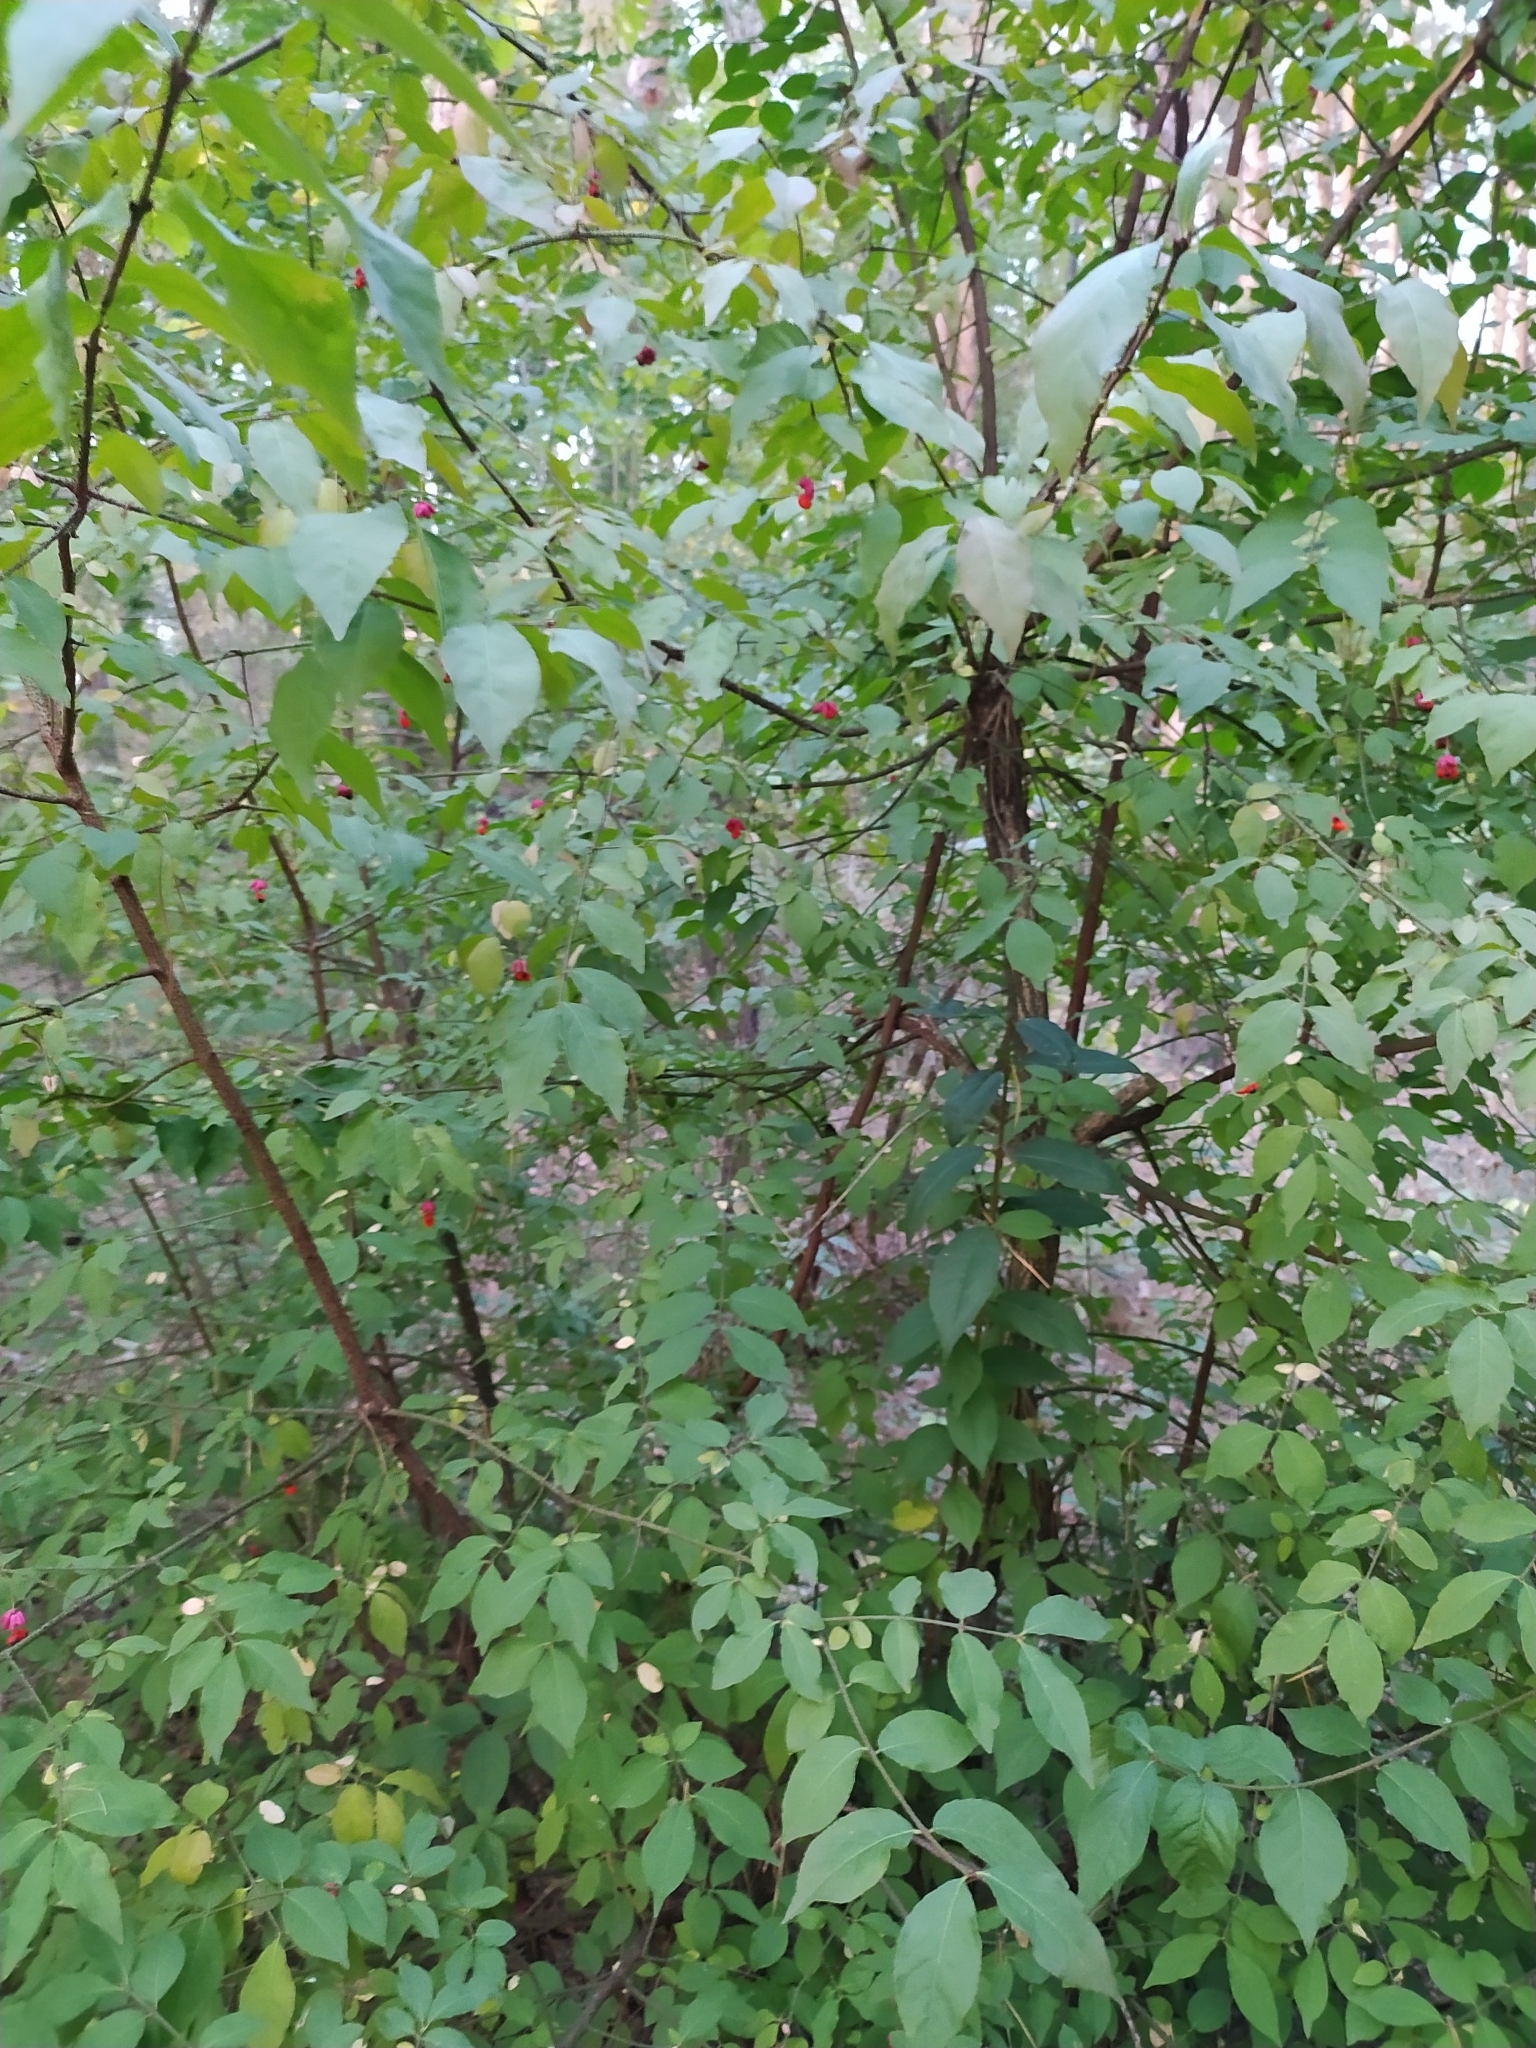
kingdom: Plantae
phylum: Tracheophyta
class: Magnoliopsida
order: Celastrales
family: Celastraceae
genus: Euonymus
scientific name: Euonymus verrucosus
